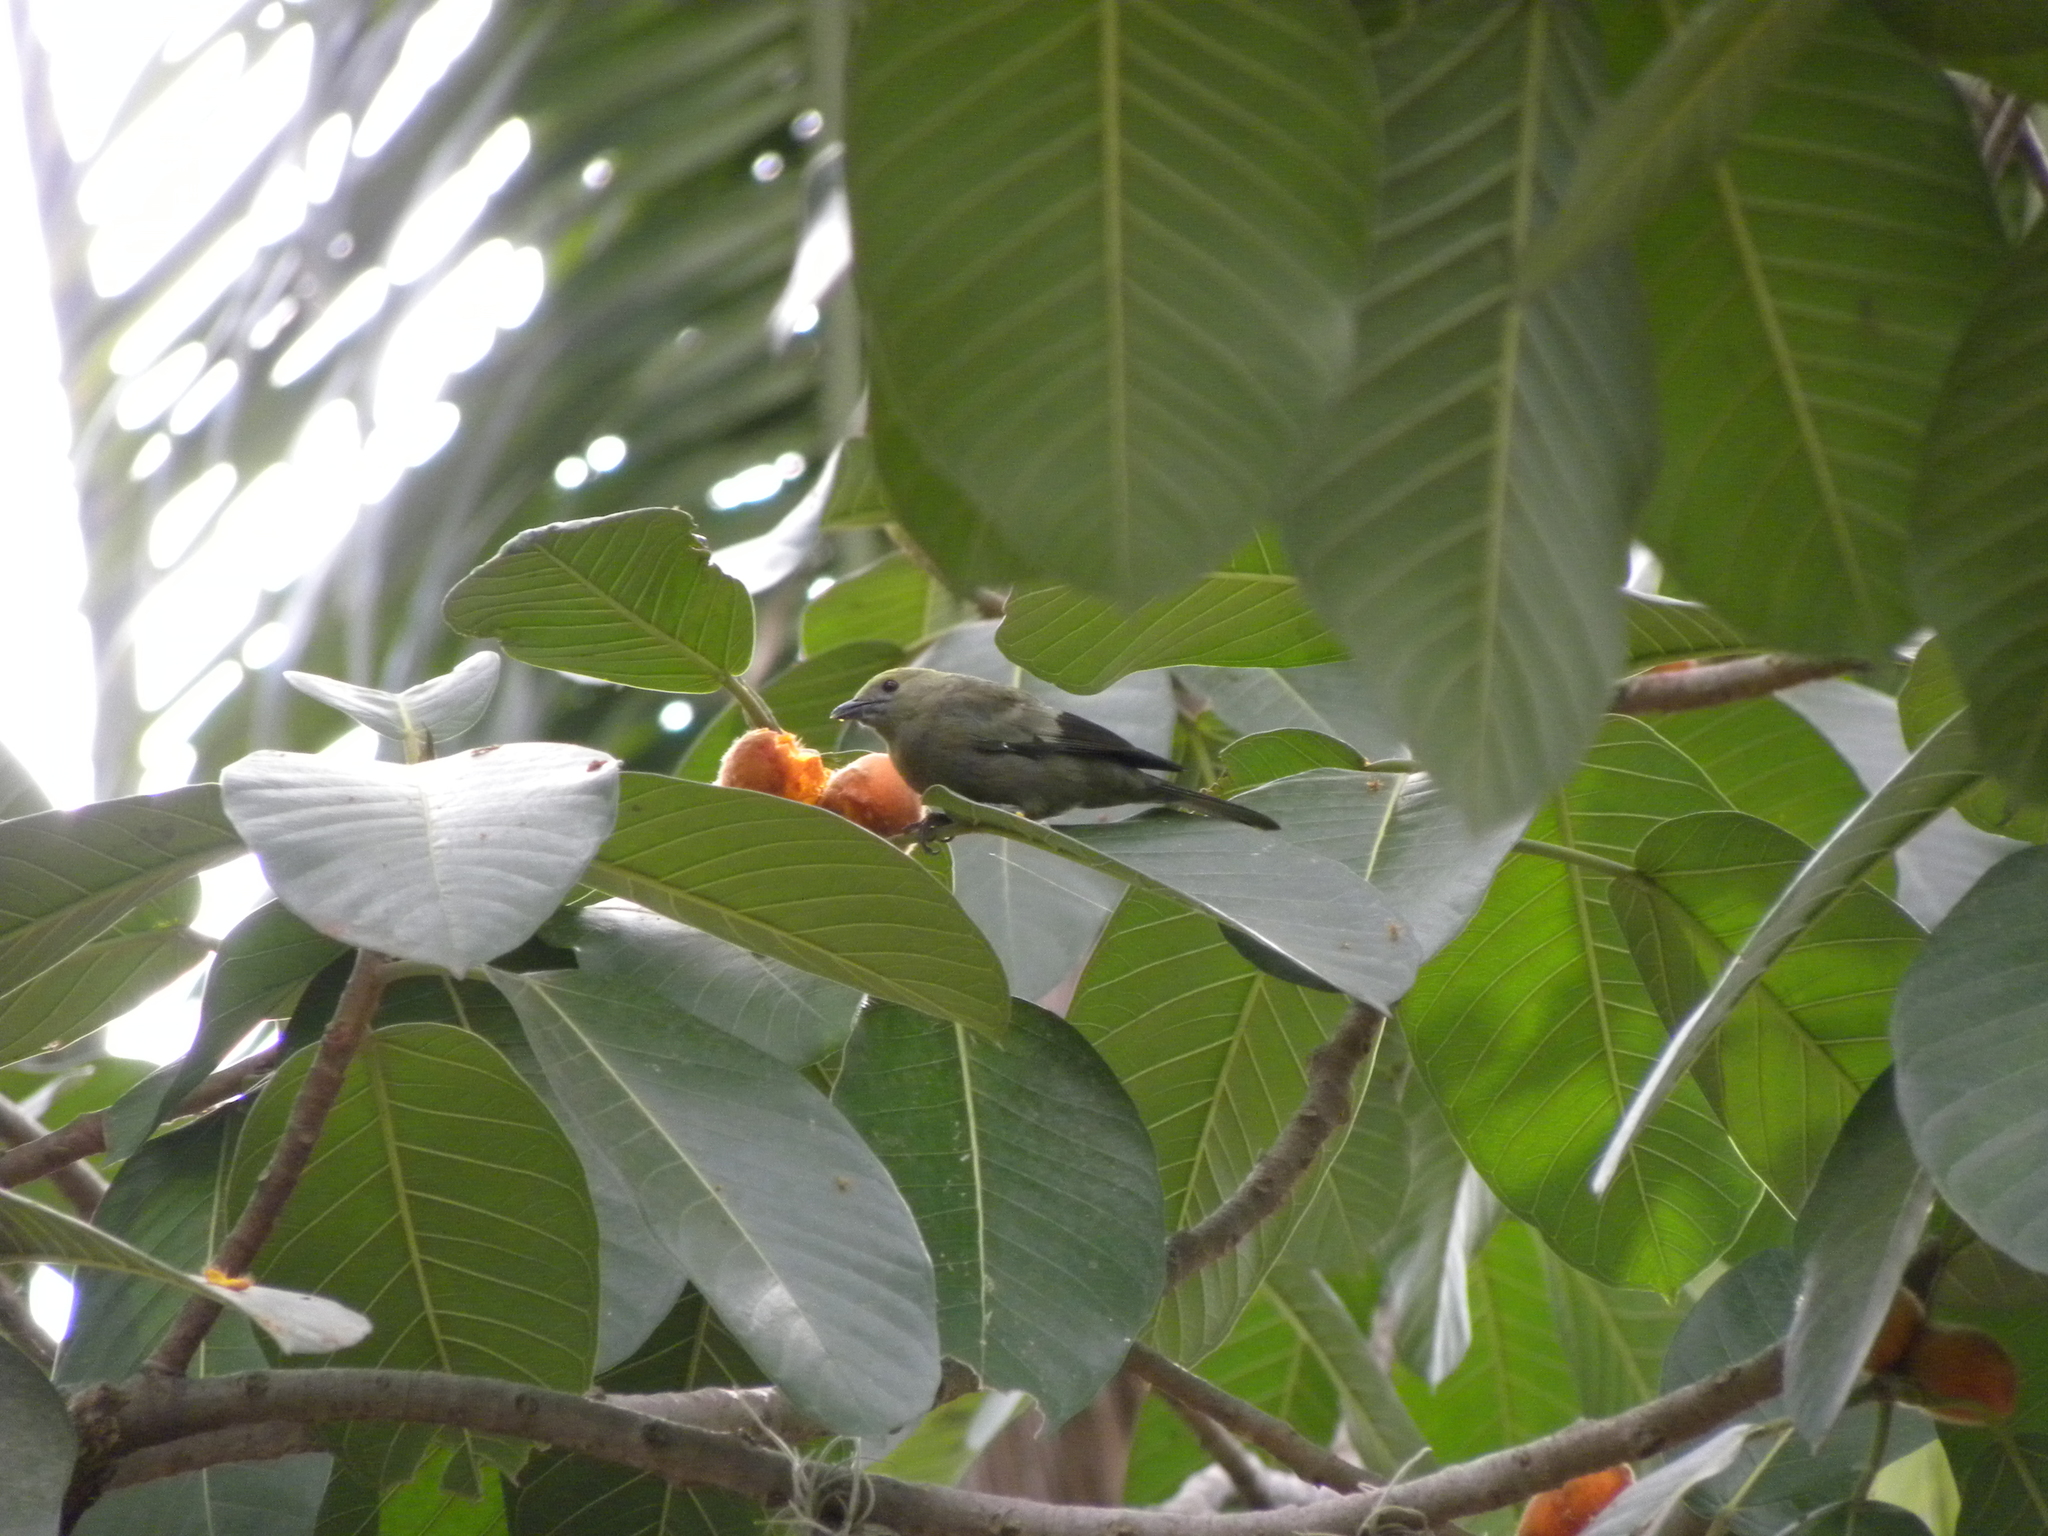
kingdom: Animalia
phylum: Chordata
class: Aves
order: Passeriformes
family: Thraupidae
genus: Thraupis
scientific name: Thraupis palmarum
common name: Palm tanager
